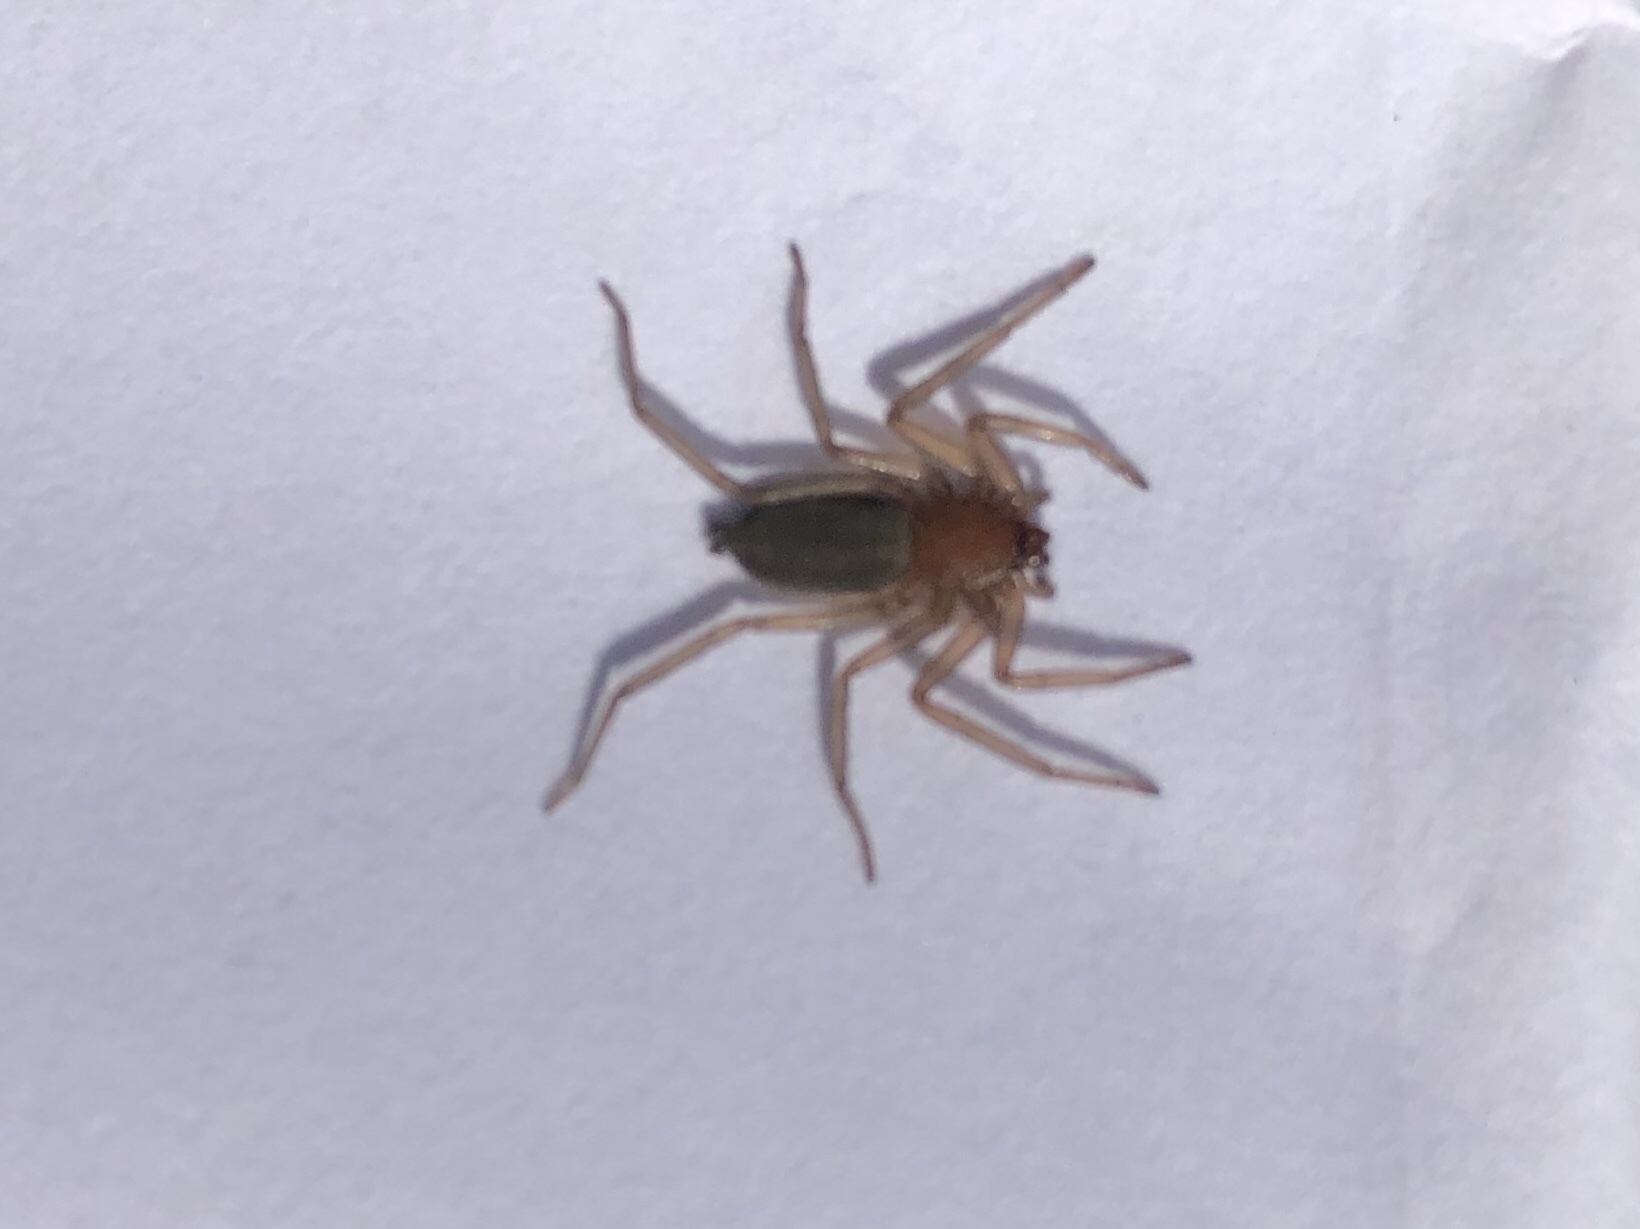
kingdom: Animalia
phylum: Arthropoda
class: Arachnida
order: Araneae
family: Trochanteriidae
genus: Hemicloea
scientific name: Hemicloea rogenhoferi
